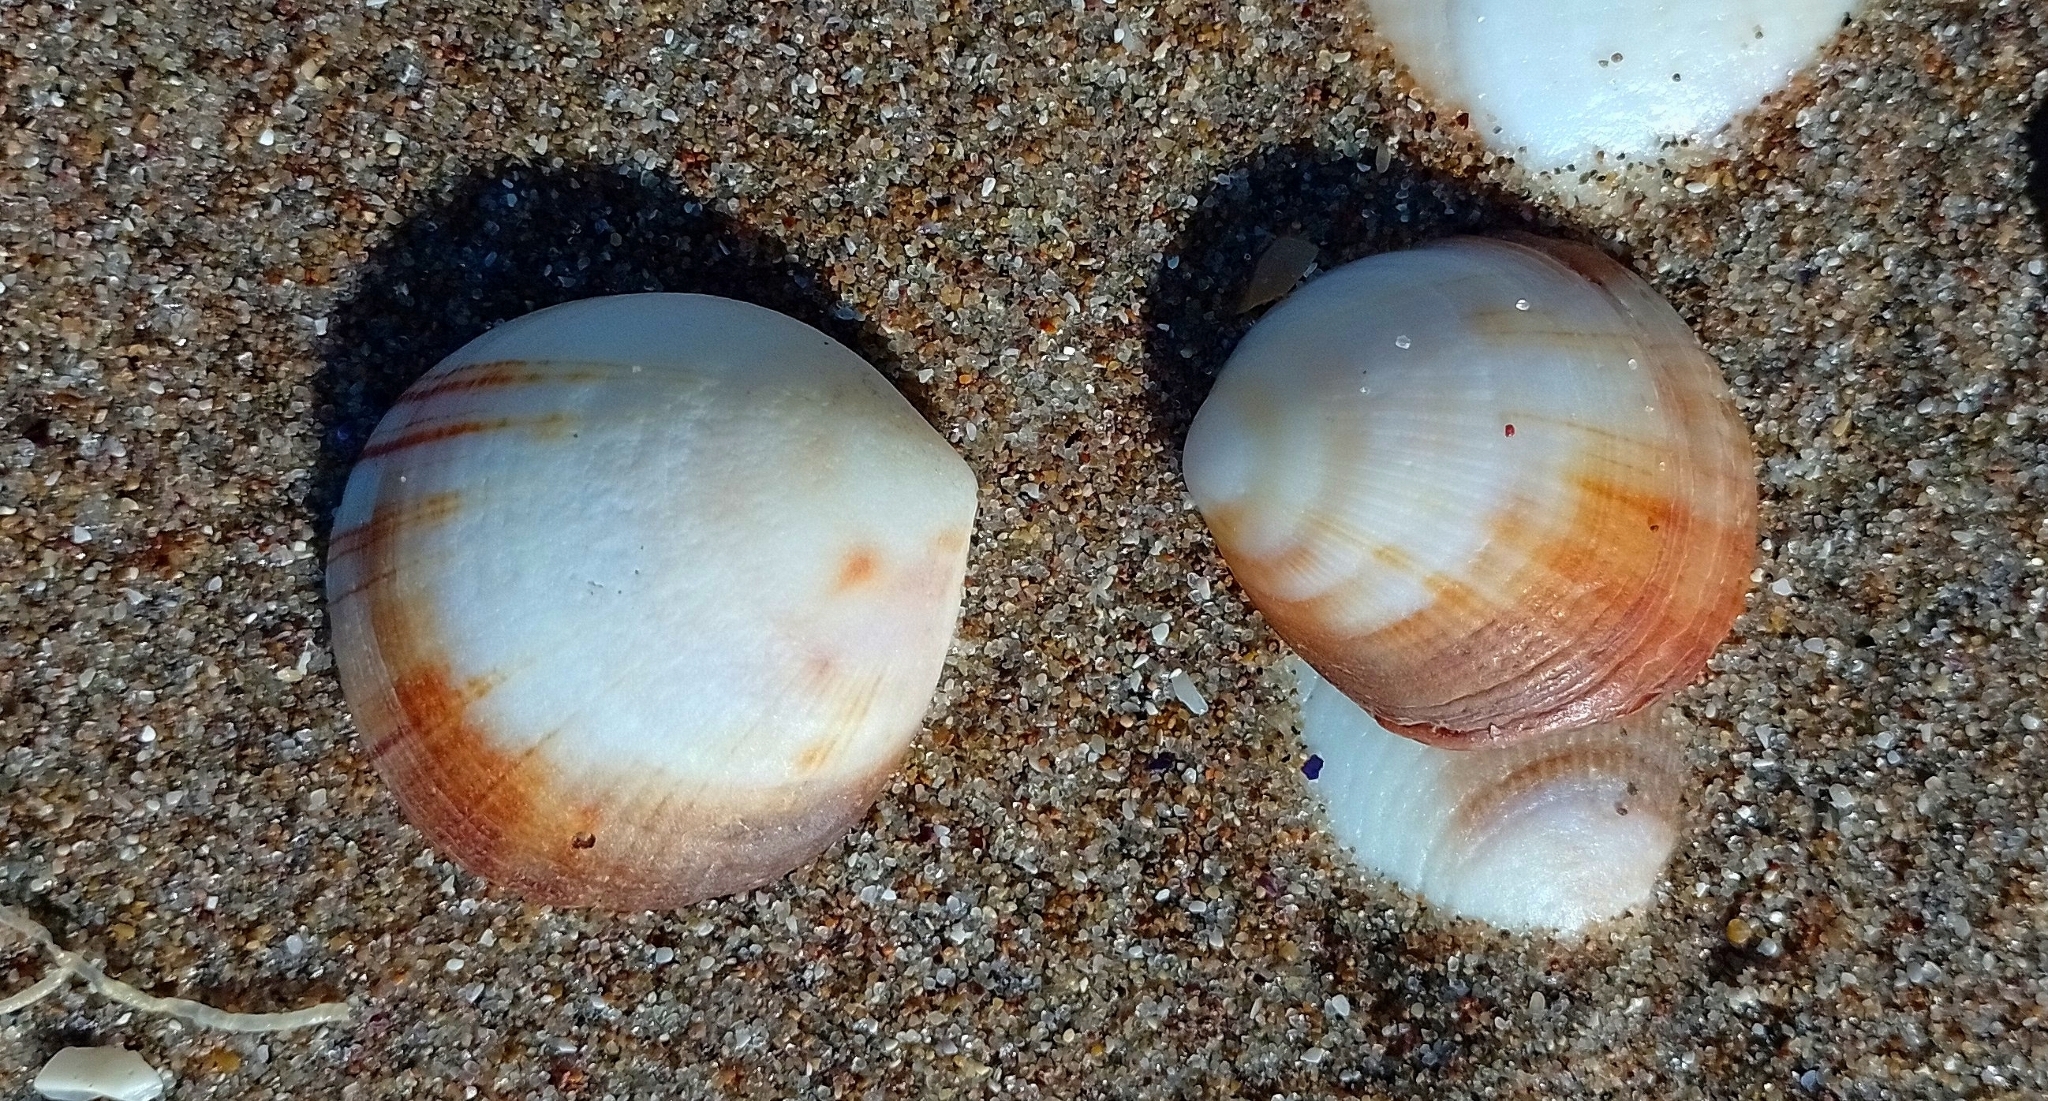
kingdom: Animalia
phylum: Mollusca
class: Bivalvia
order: Arcida
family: Glycymerididae
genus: Glycymeris
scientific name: Glycymeris longior
